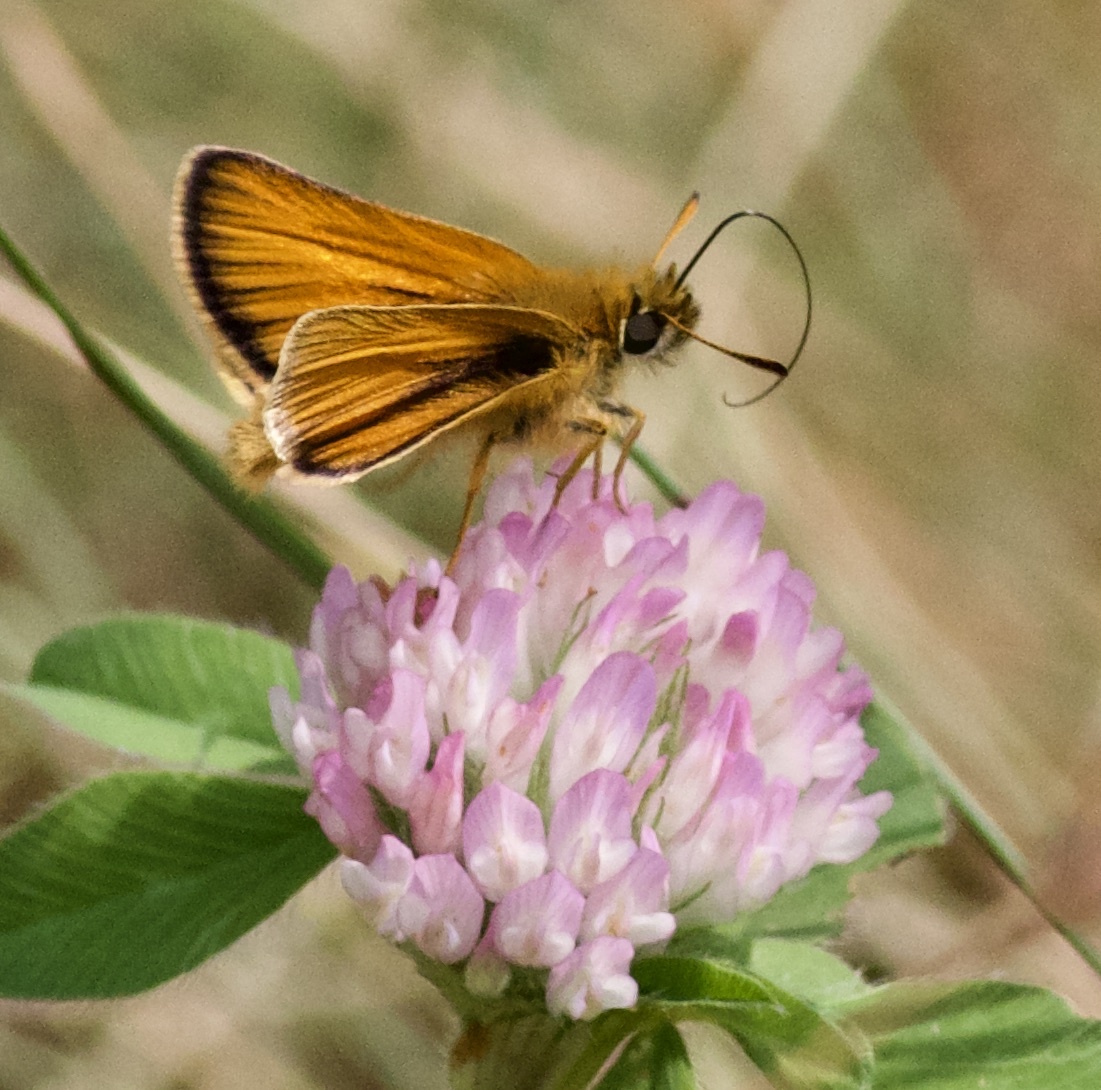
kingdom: Animalia
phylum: Arthropoda
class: Insecta
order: Lepidoptera
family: Hesperiidae
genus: Thymelicus
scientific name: Thymelicus lineola
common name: Essex skipper
